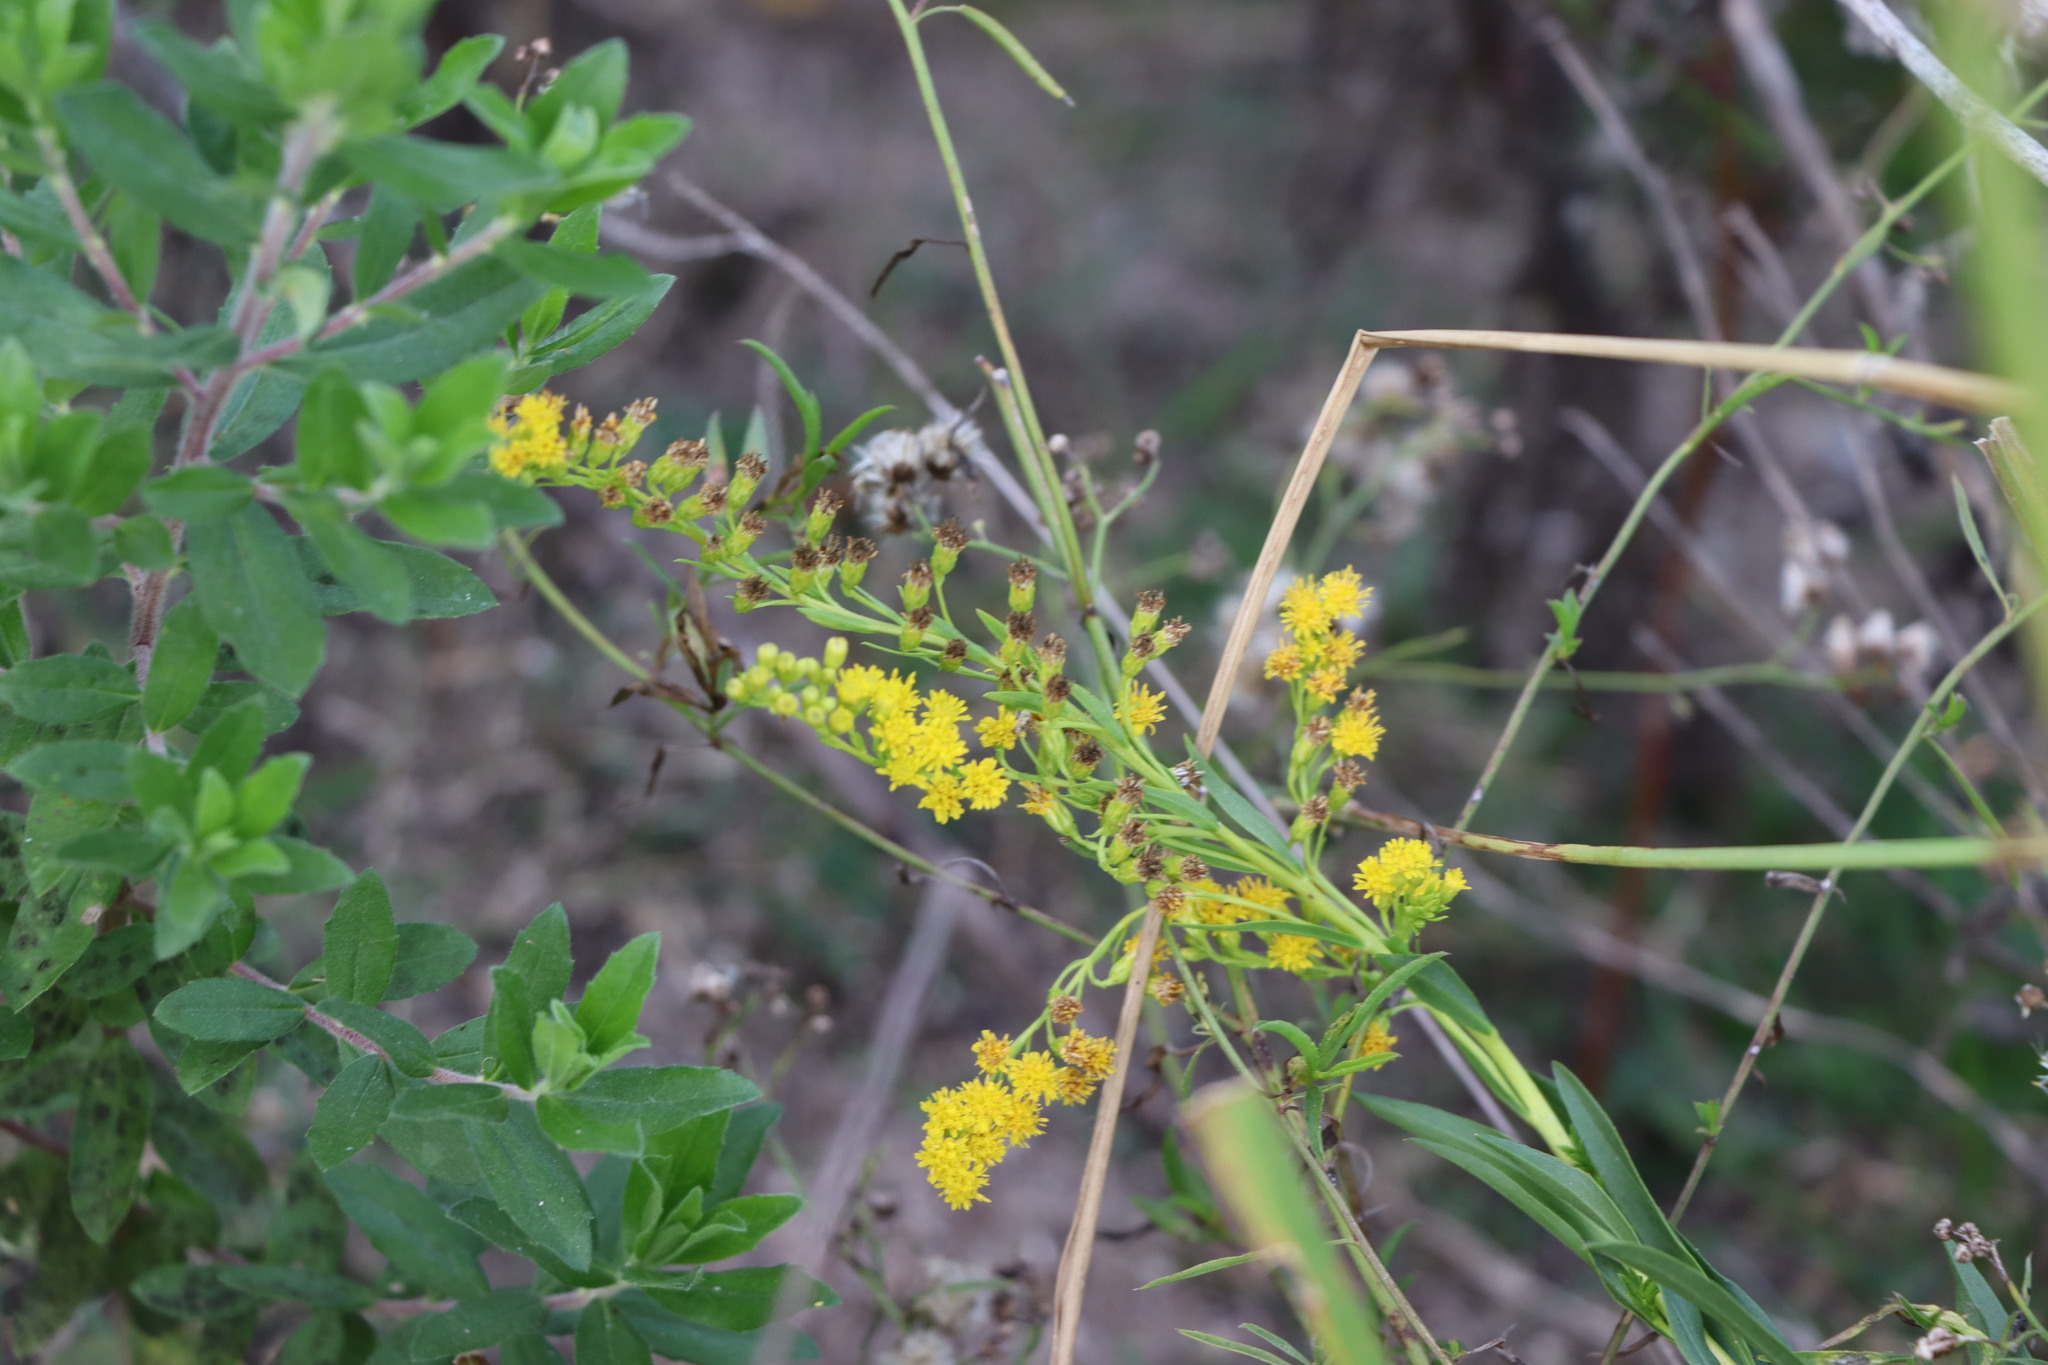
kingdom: Plantae
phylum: Tracheophyta
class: Magnoliopsida
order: Asterales
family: Asteraceae
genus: Solidago
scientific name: Solidago chilensis
